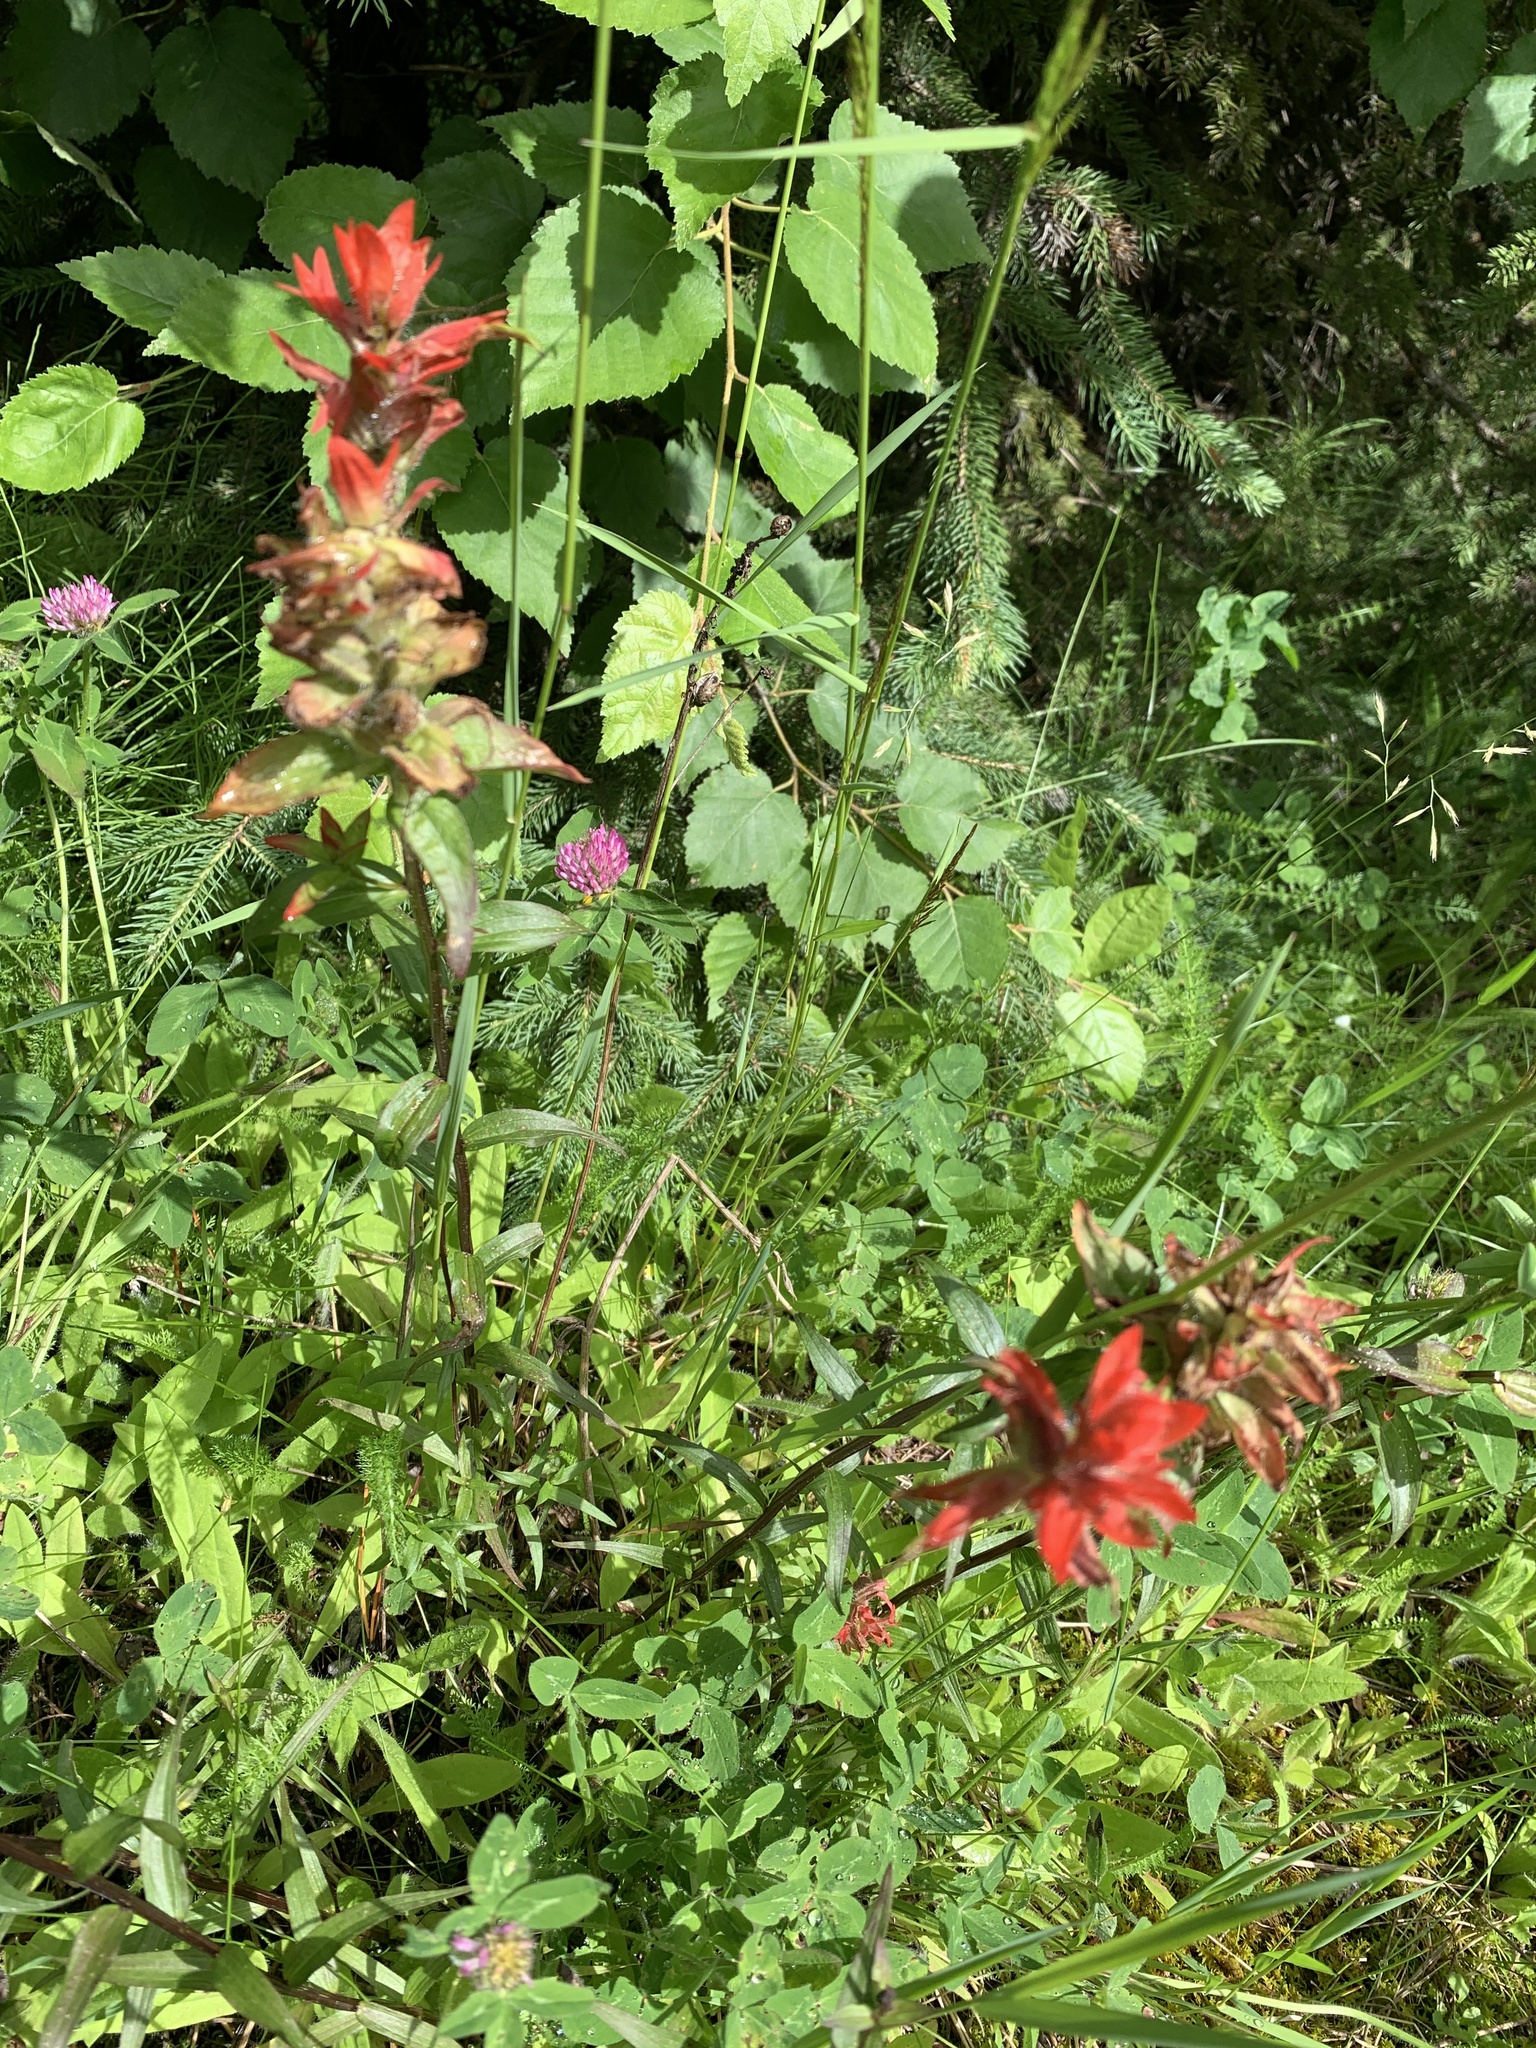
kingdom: Plantae
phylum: Tracheophyta
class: Magnoliopsida
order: Lamiales
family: Orobanchaceae
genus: Castilleja
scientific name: Castilleja miniata
